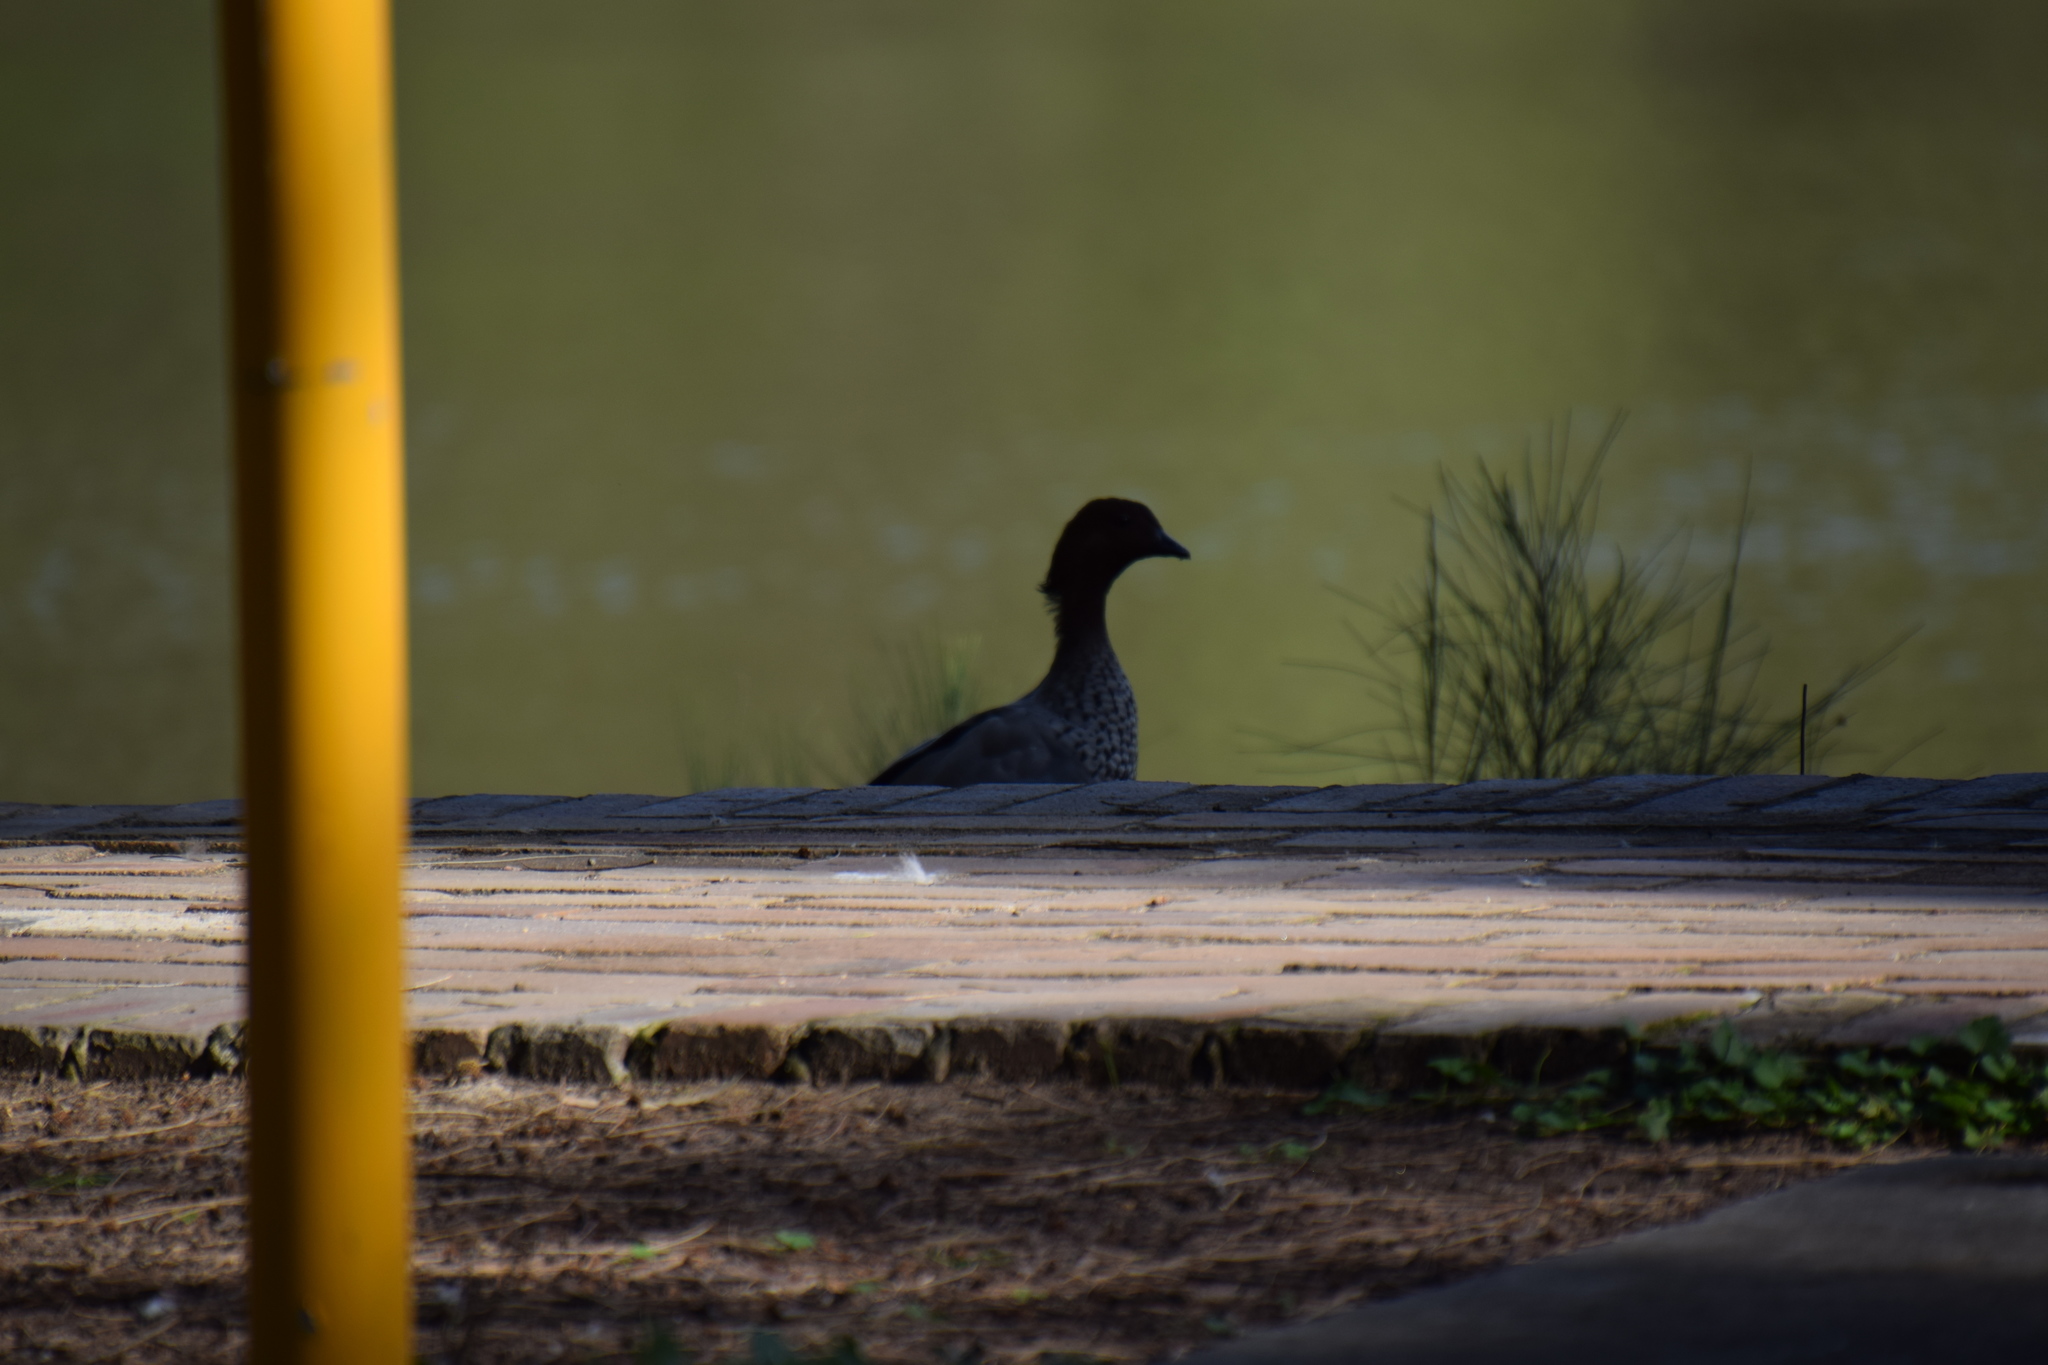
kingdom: Animalia
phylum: Chordata
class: Aves
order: Anseriformes
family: Anatidae
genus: Chenonetta
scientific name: Chenonetta jubata
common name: Maned duck
